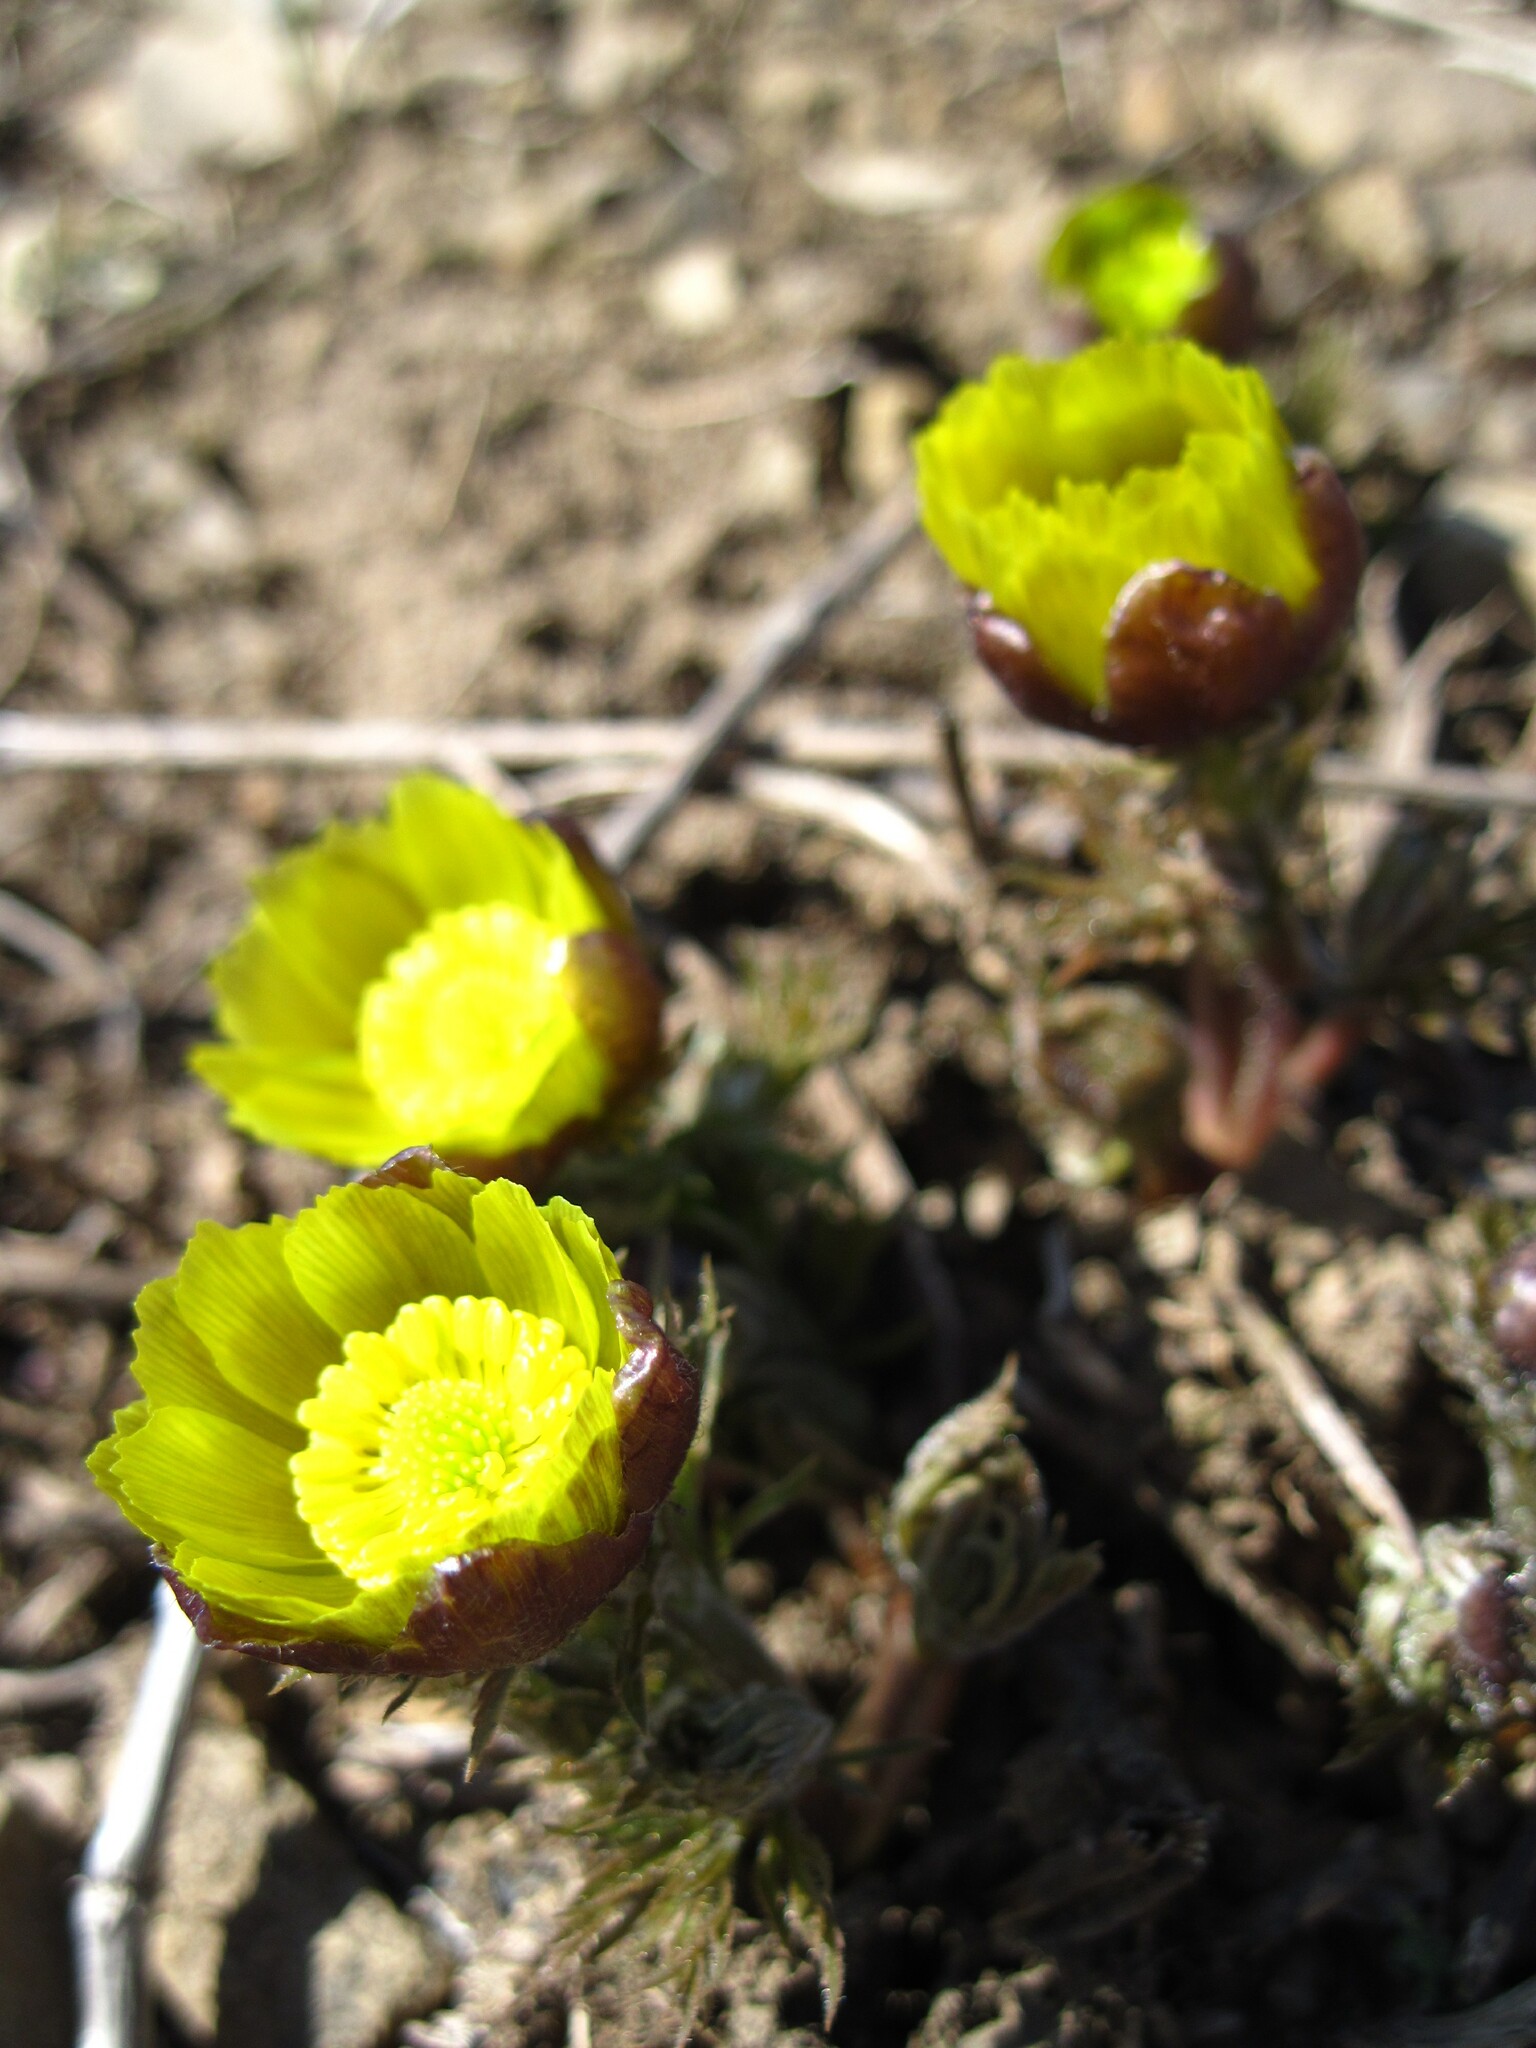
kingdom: Plantae
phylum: Tracheophyta
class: Magnoliopsida
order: Ranunculales
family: Ranunculaceae
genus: Adonis
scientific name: Adonis volgensis
